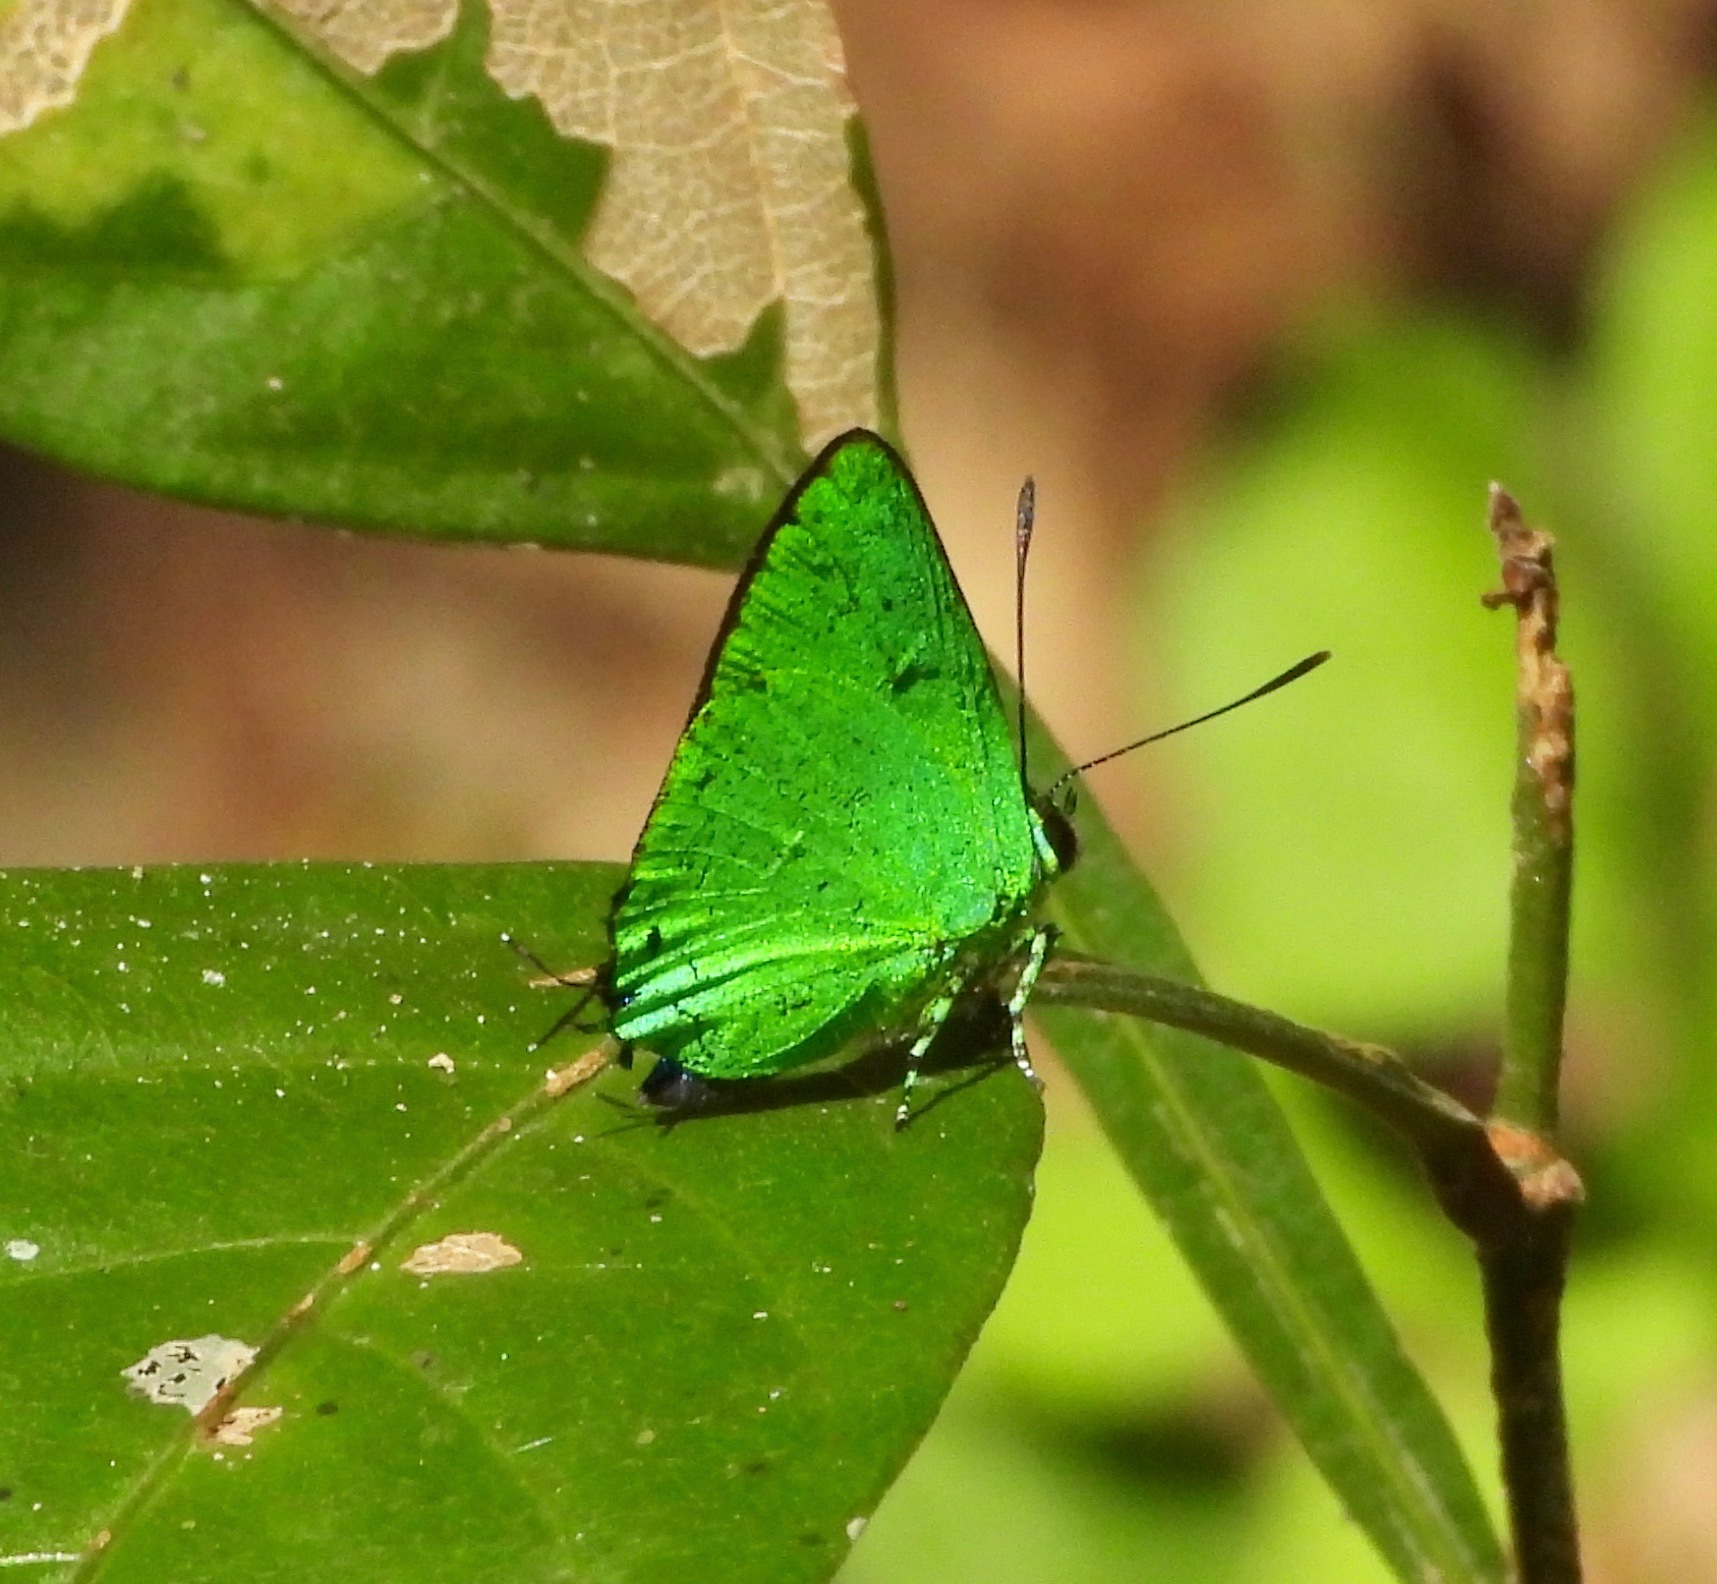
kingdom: Animalia
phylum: Arthropoda
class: Insecta
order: Lepidoptera
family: Lycaenidae
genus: Chalybs
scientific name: Chalybs janias
